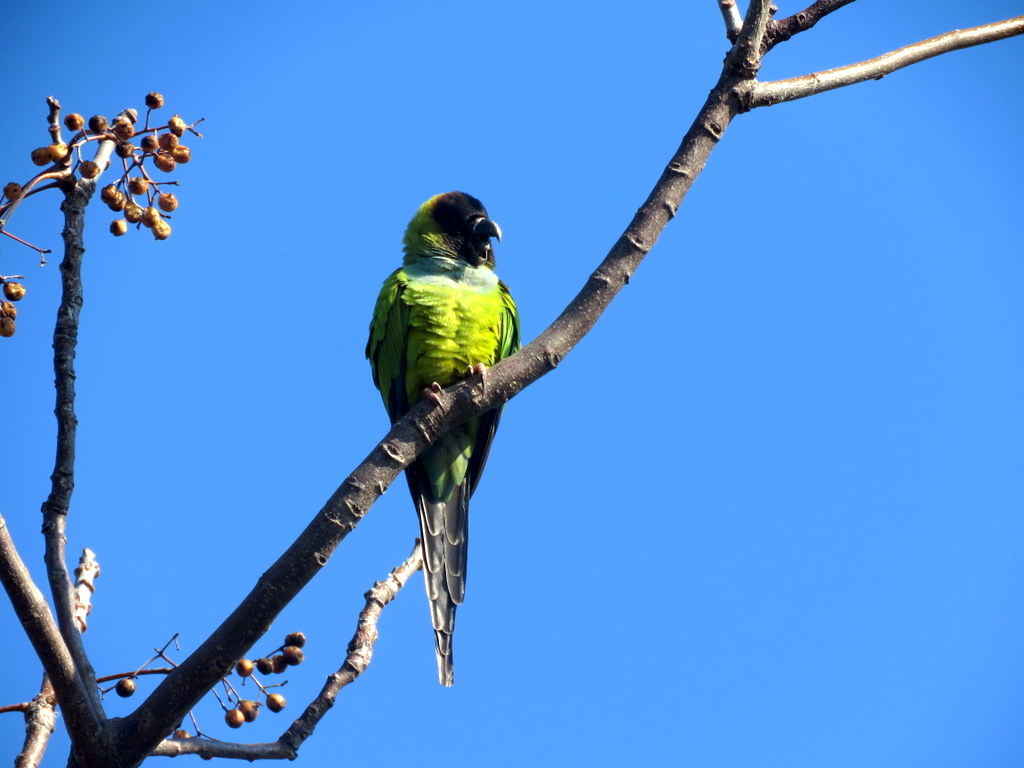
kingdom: Animalia
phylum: Chordata
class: Aves
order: Psittaciformes
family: Psittacidae
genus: Nandayus
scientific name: Nandayus nenday
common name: Nanday parakeet
